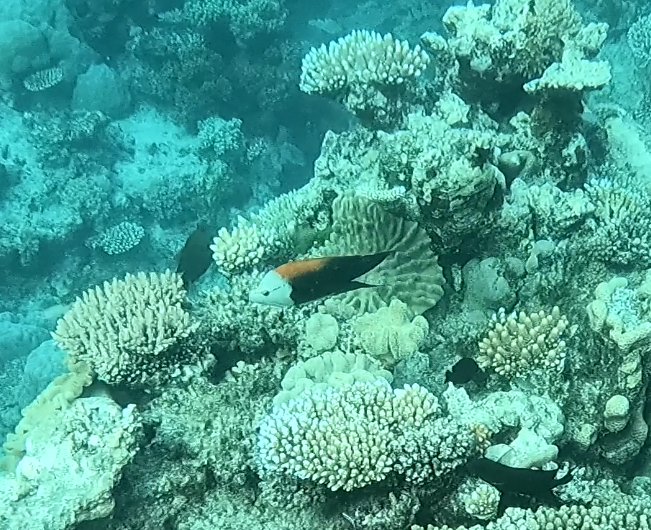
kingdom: Animalia
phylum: Chordata
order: Perciformes
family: Labridae
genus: Epibulus
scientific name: Epibulus insidiator
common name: Slingjaw wrasse
